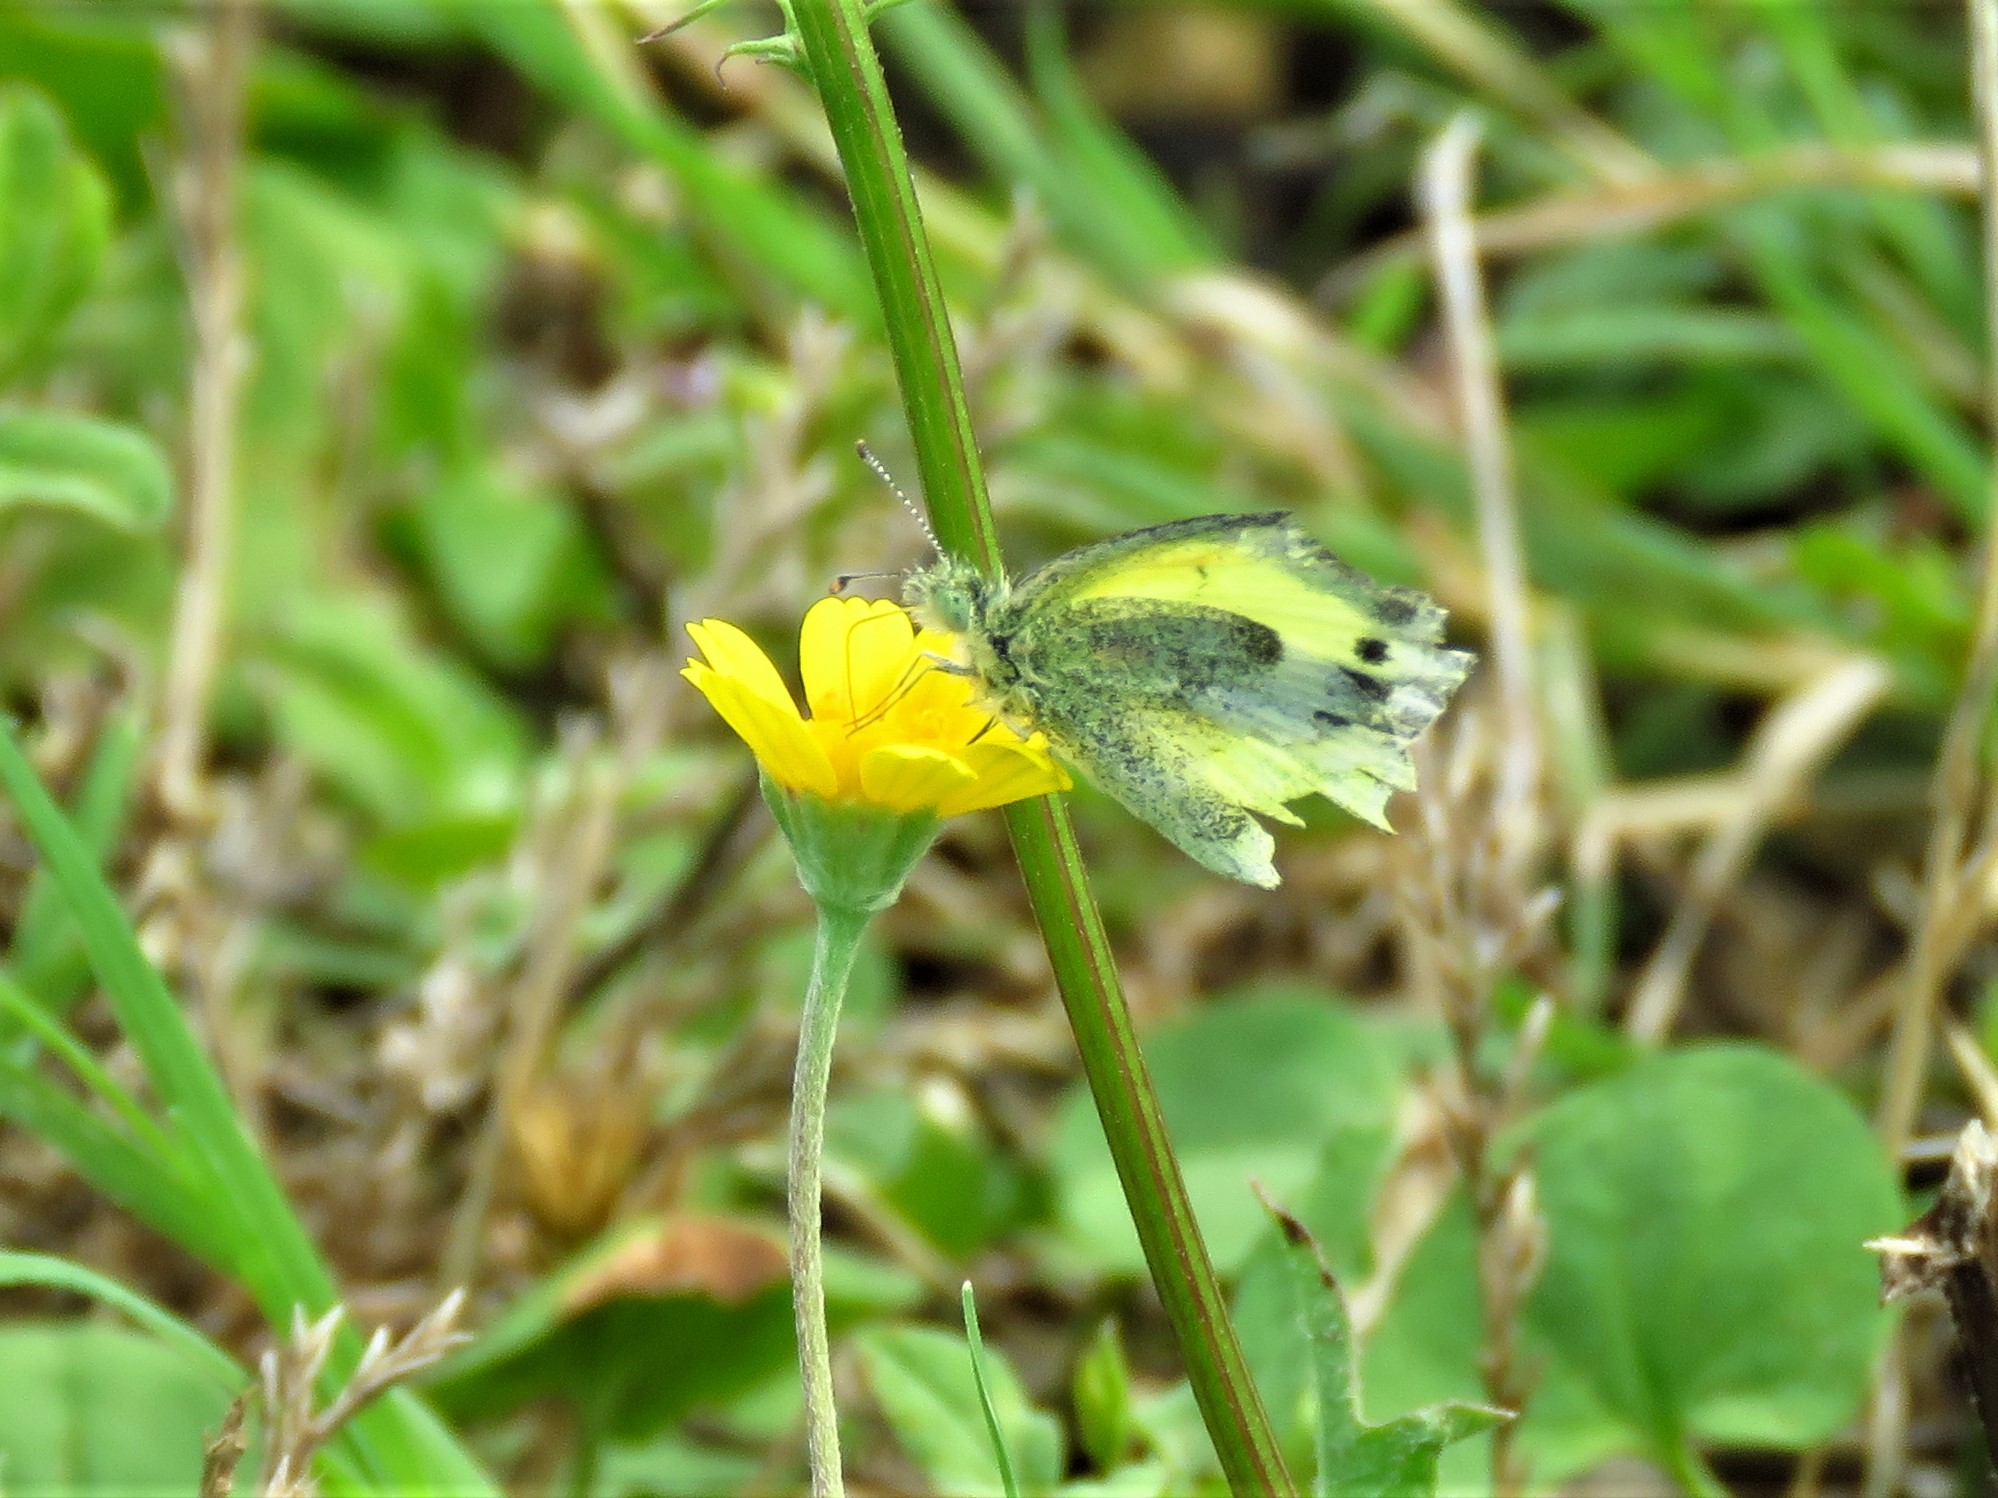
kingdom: Animalia
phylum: Arthropoda
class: Insecta
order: Lepidoptera
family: Pieridae
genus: Nathalis
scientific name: Nathalis iole
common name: Dainty sulphur
